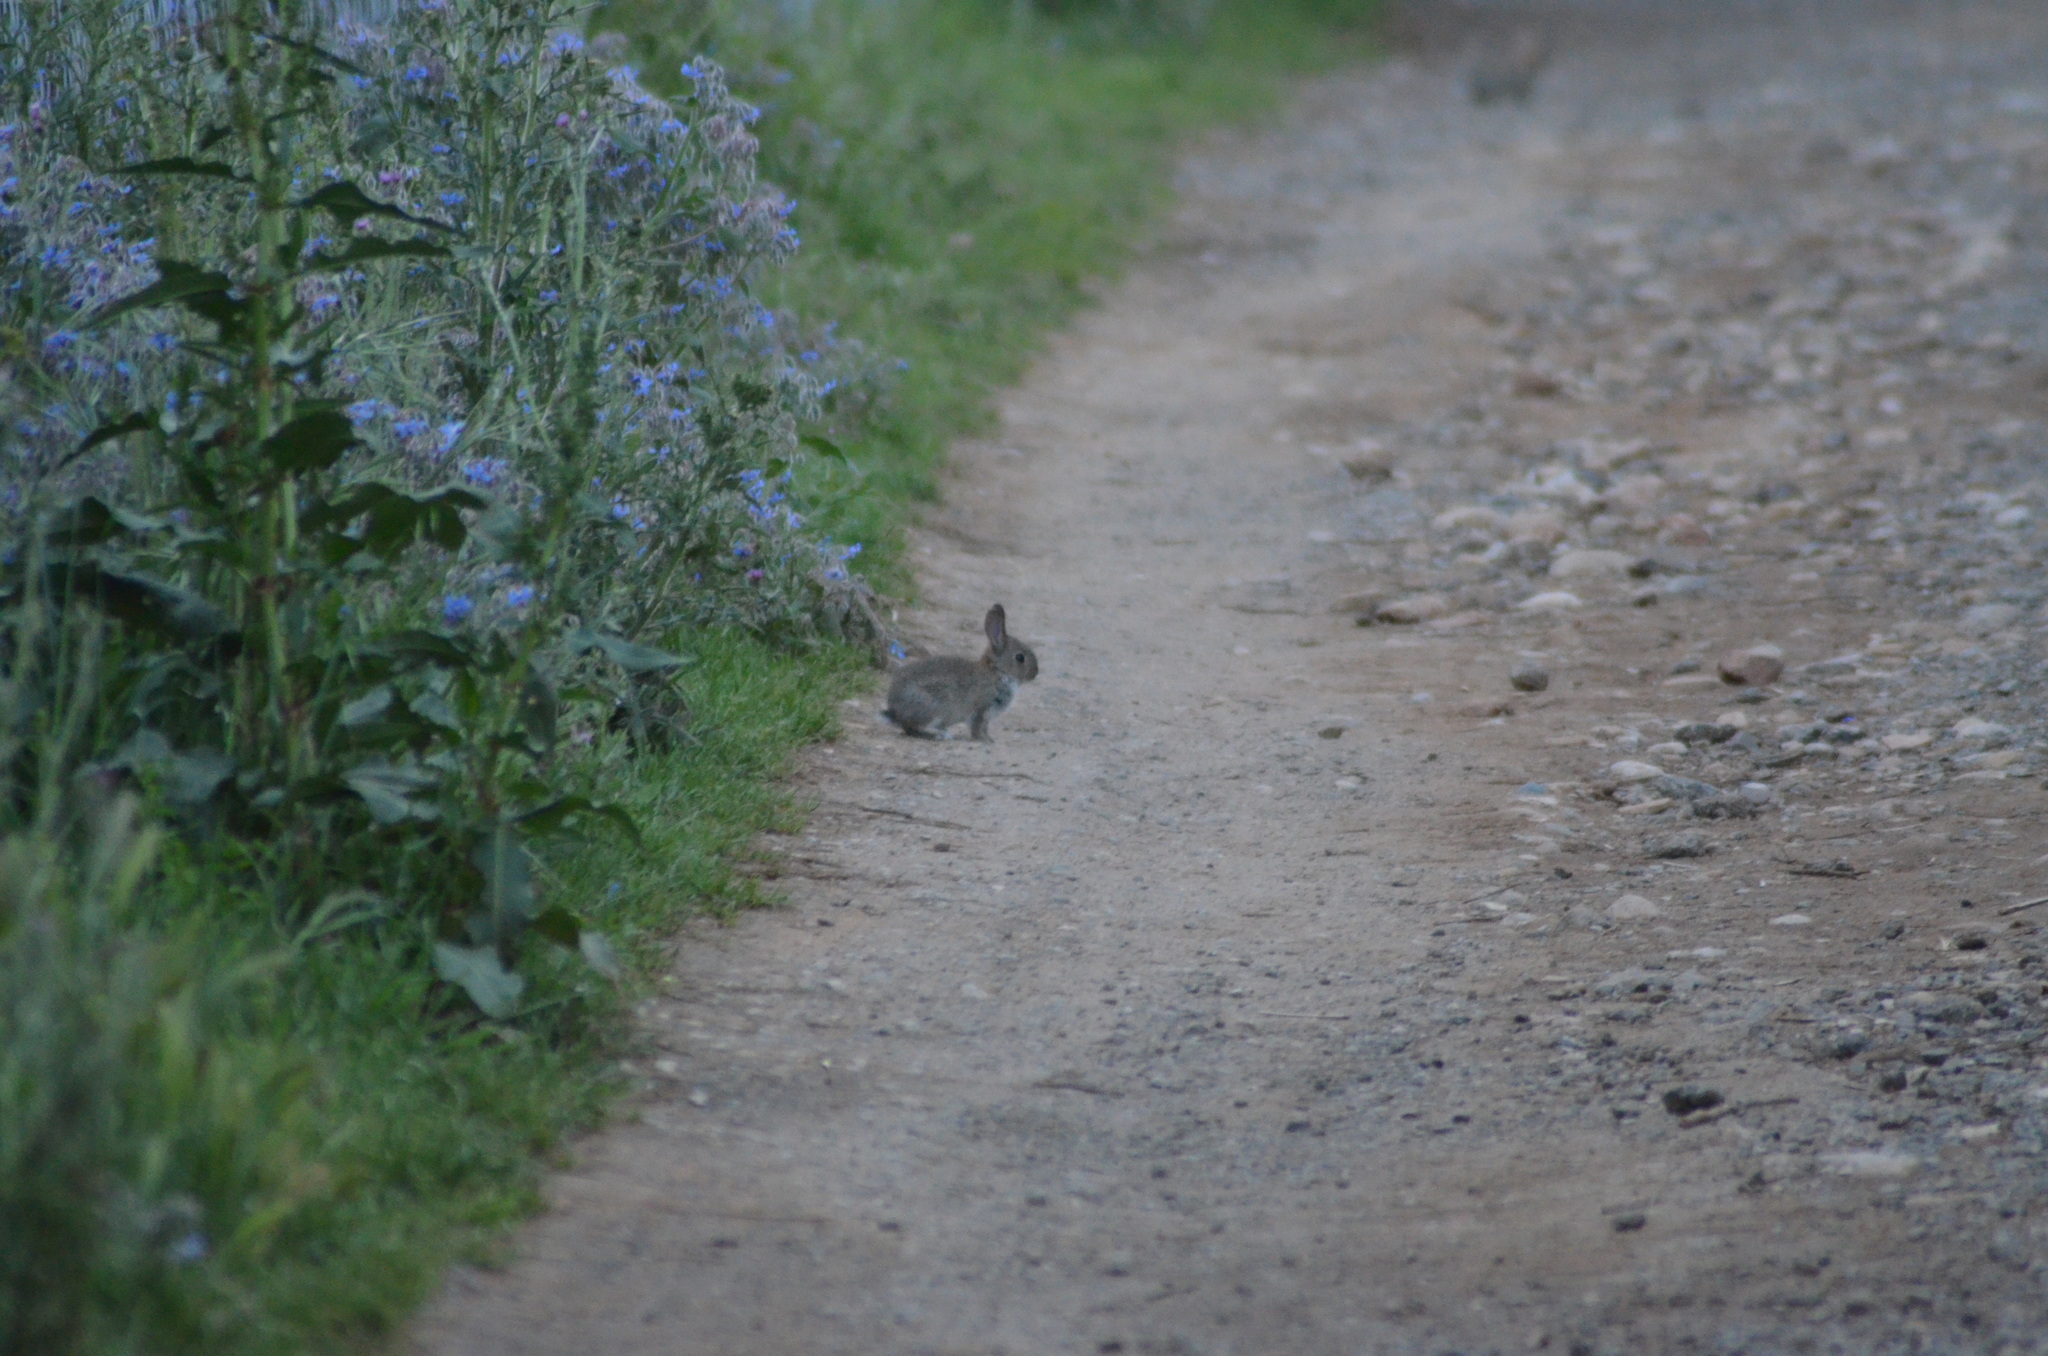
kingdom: Animalia
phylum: Chordata
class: Mammalia
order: Lagomorpha
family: Leporidae
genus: Oryctolagus
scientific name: Oryctolagus cuniculus
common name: European rabbit
